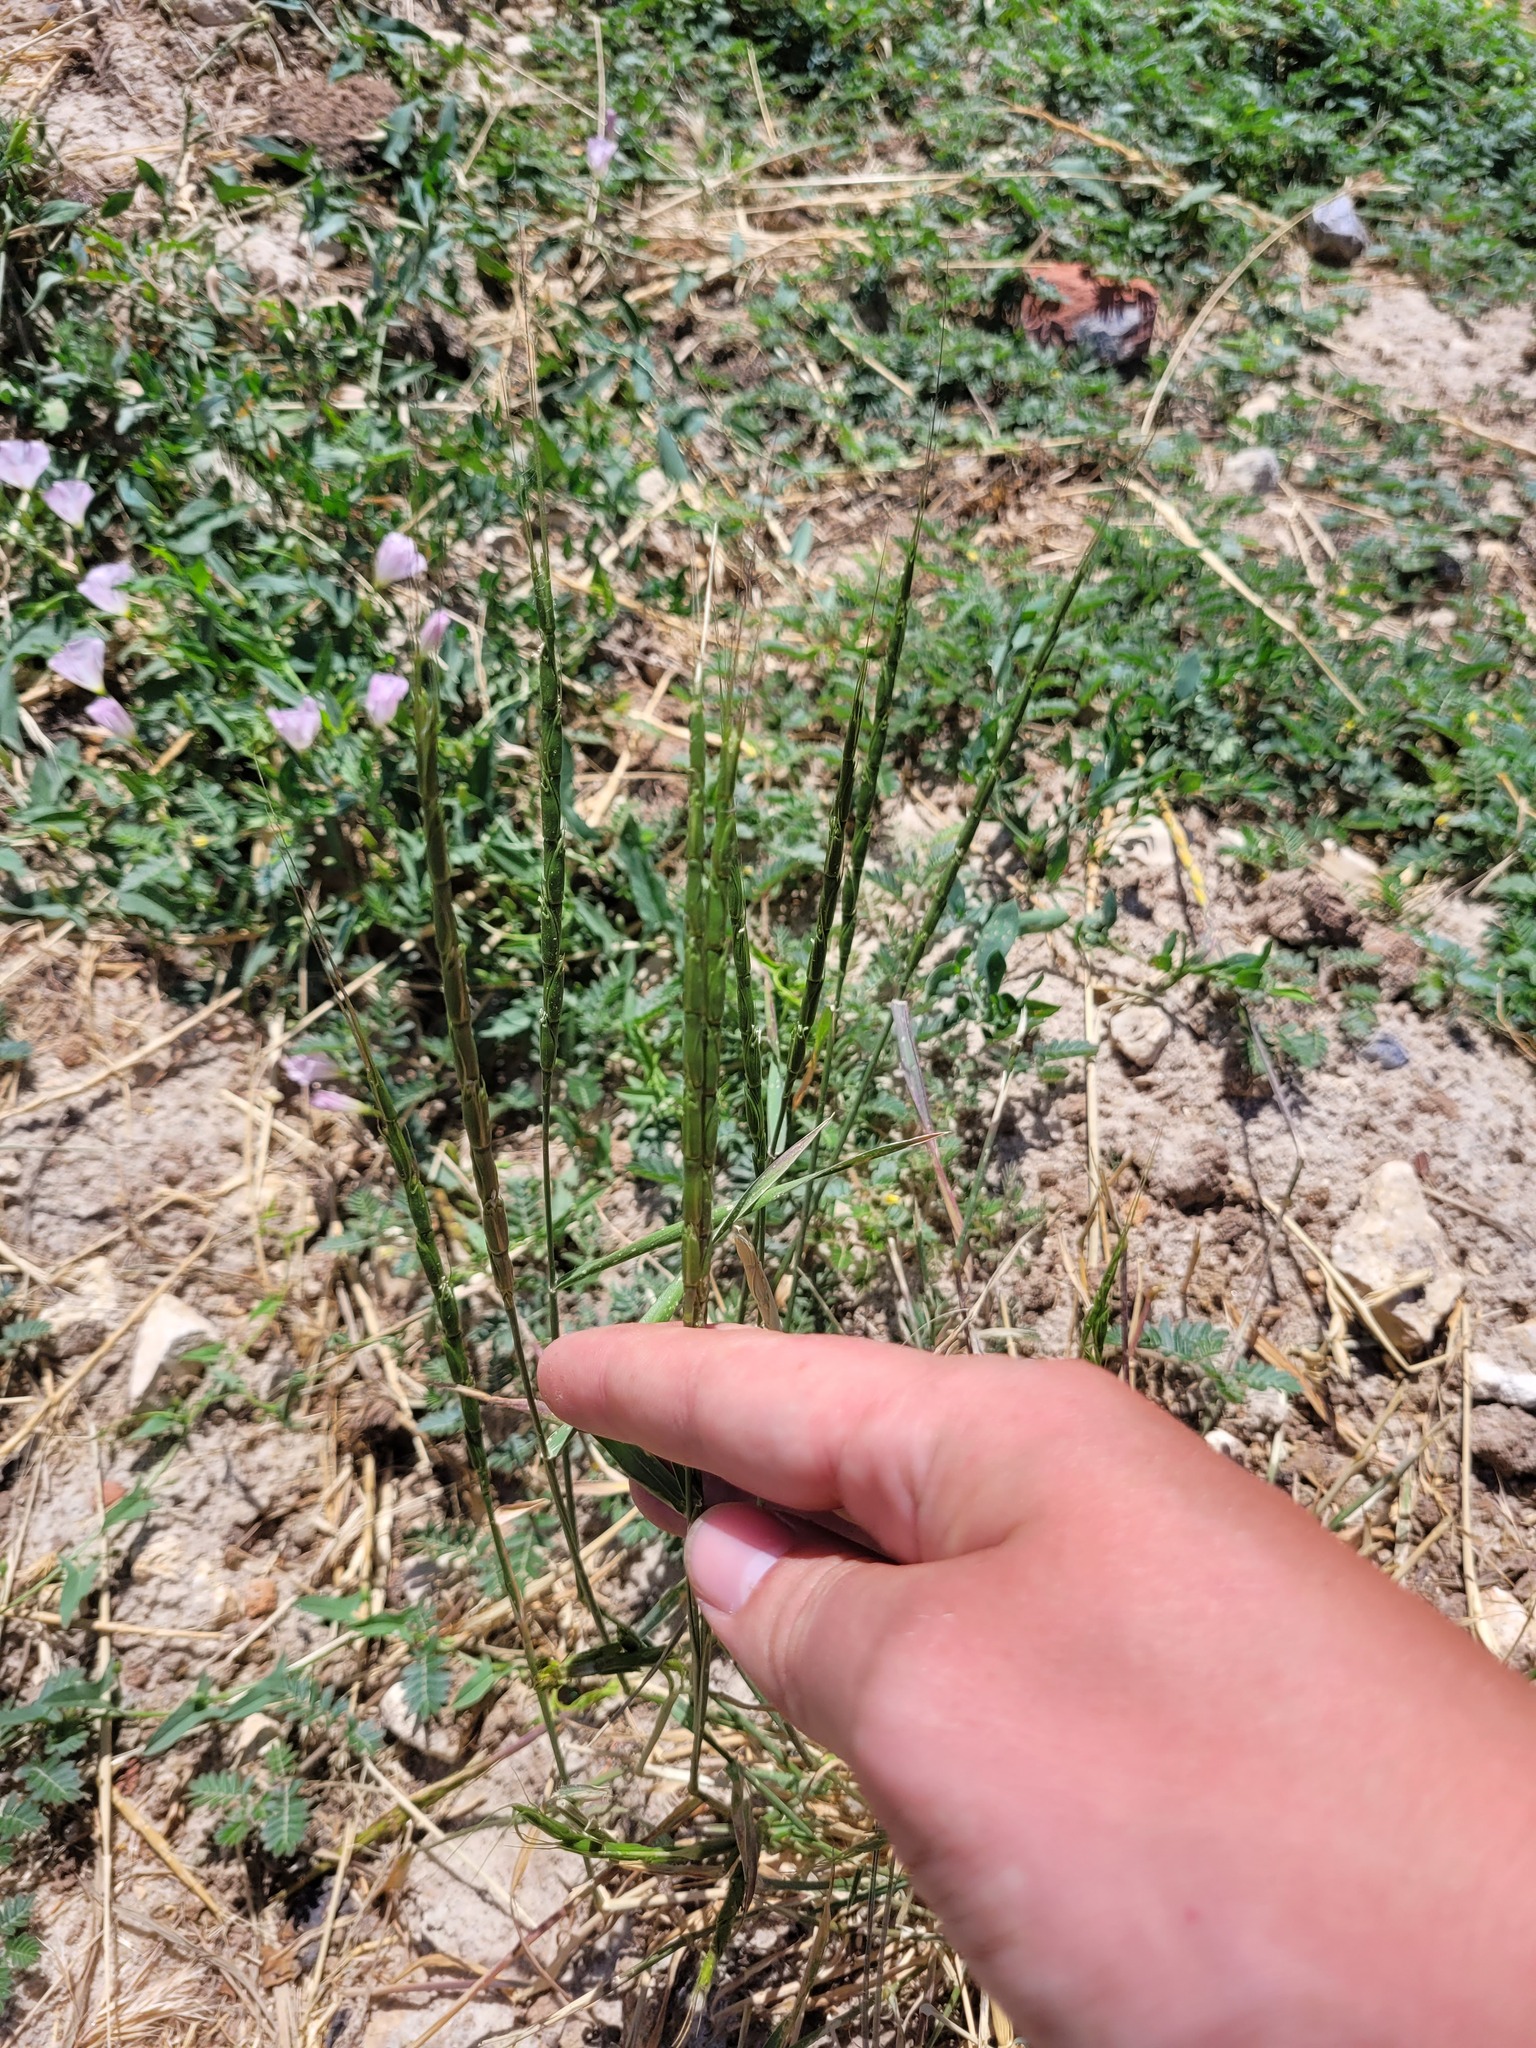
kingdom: Plantae
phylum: Tracheophyta
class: Liliopsida
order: Poales
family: Poaceae
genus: Aegilops
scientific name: Aegilops cylindrica
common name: Jointed goatgrass
